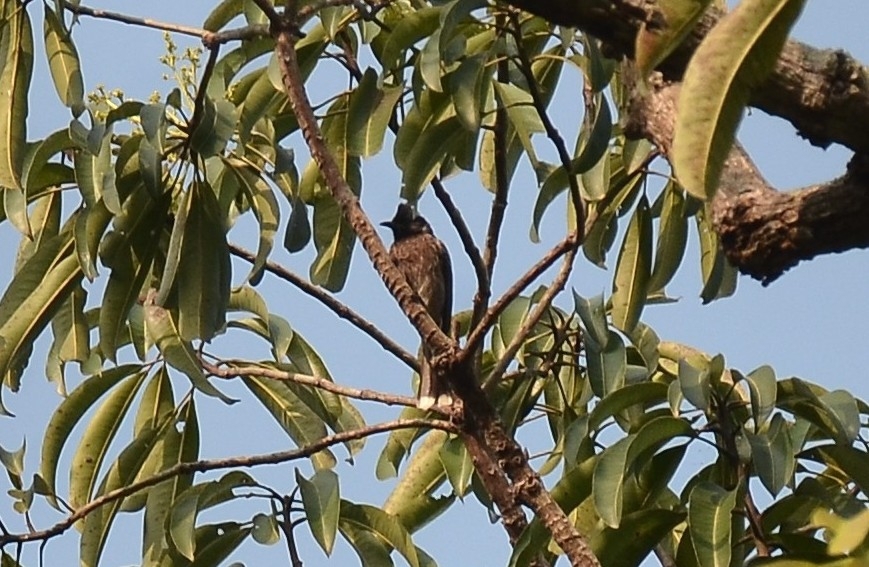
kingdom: Animalia
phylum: Chordata
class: Aves
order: Passeriformes
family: Pycnonotidae
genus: Pycnonotus
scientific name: Pycnonotus cafer
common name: Red-vented bulbul
